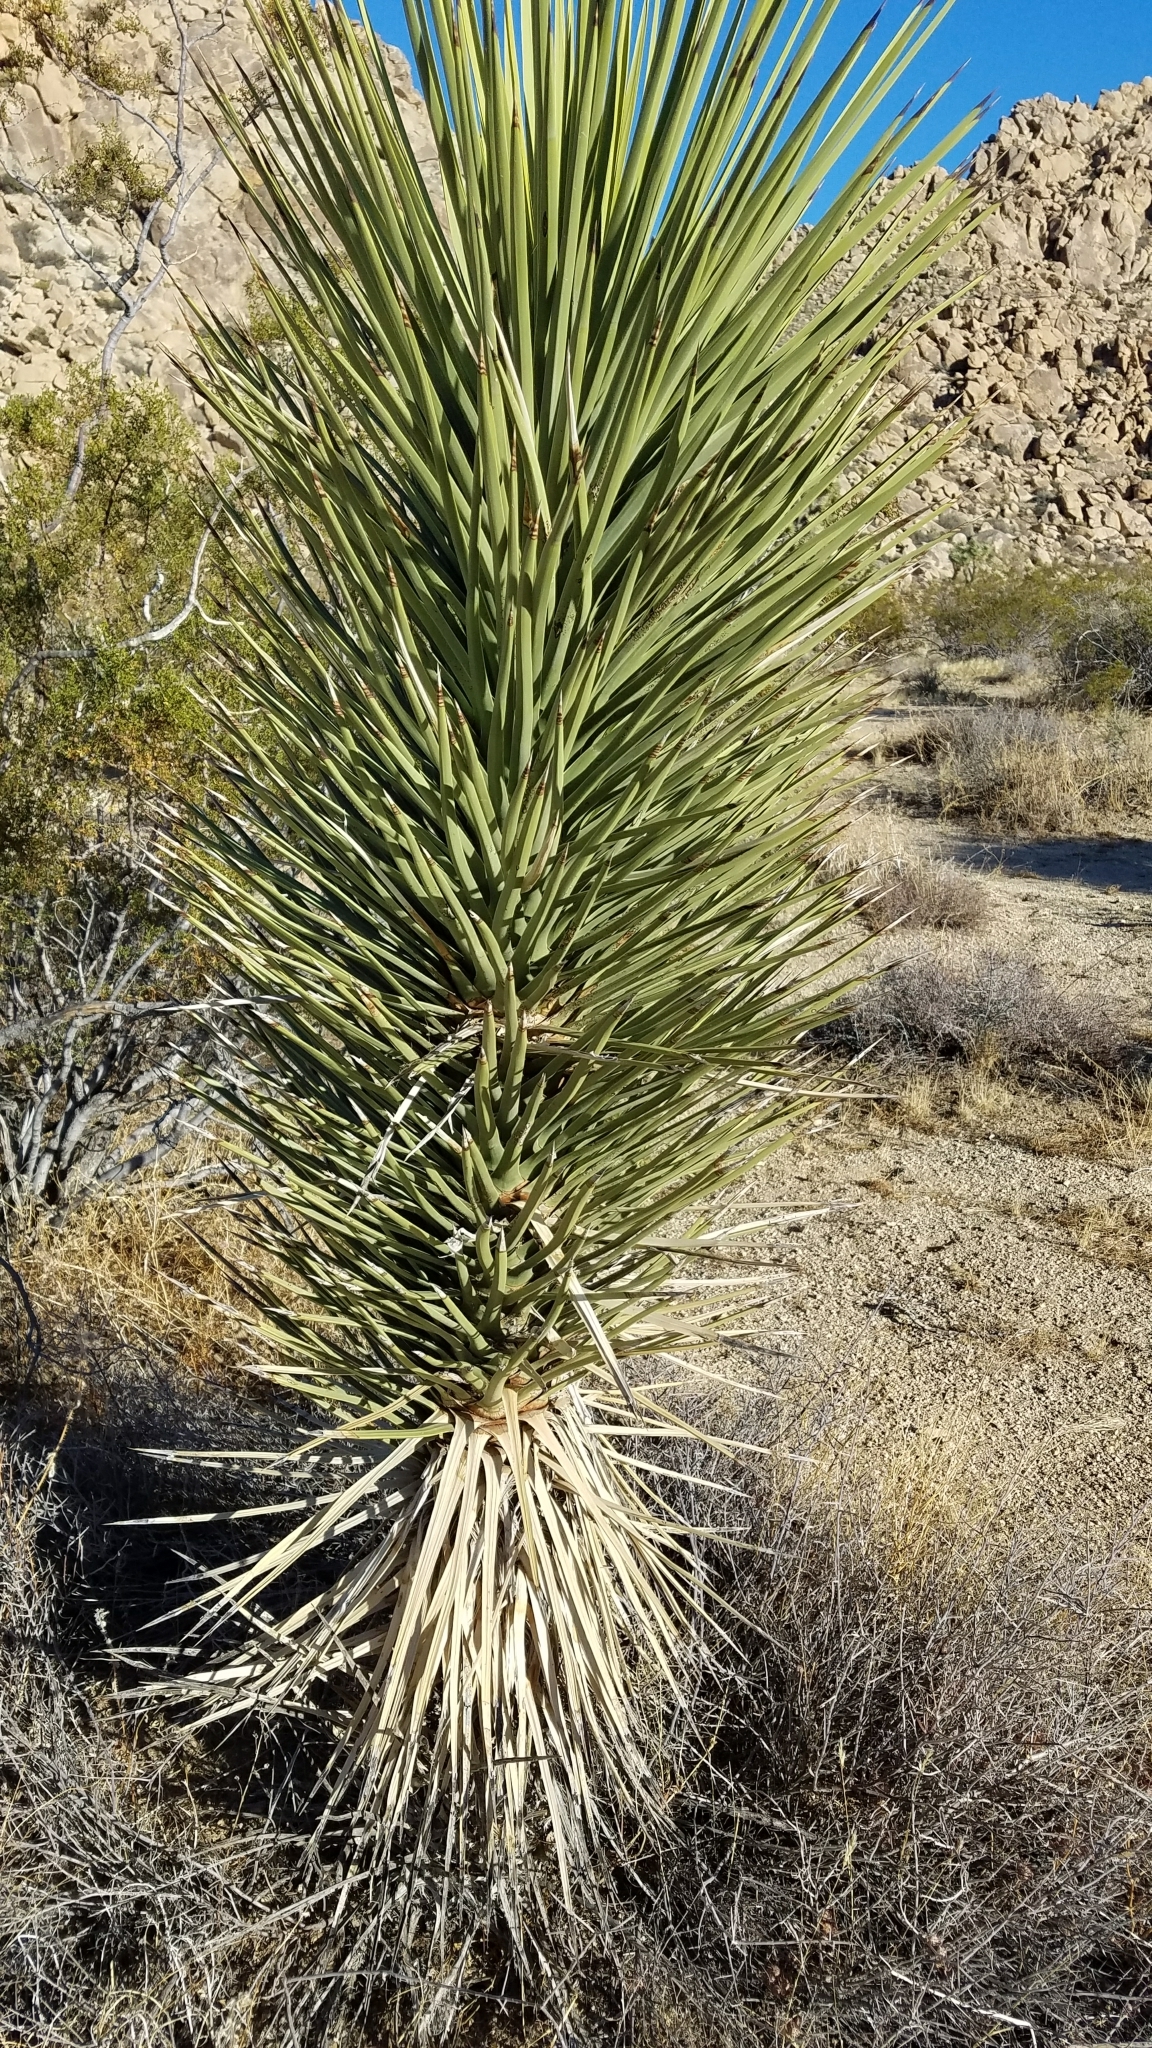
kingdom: Plantae
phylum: Tracheophyta
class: Liliopsida
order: Asparagales
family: Asparagaceae
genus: Yucca
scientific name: Yucca brevifolia
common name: Joshua tree
